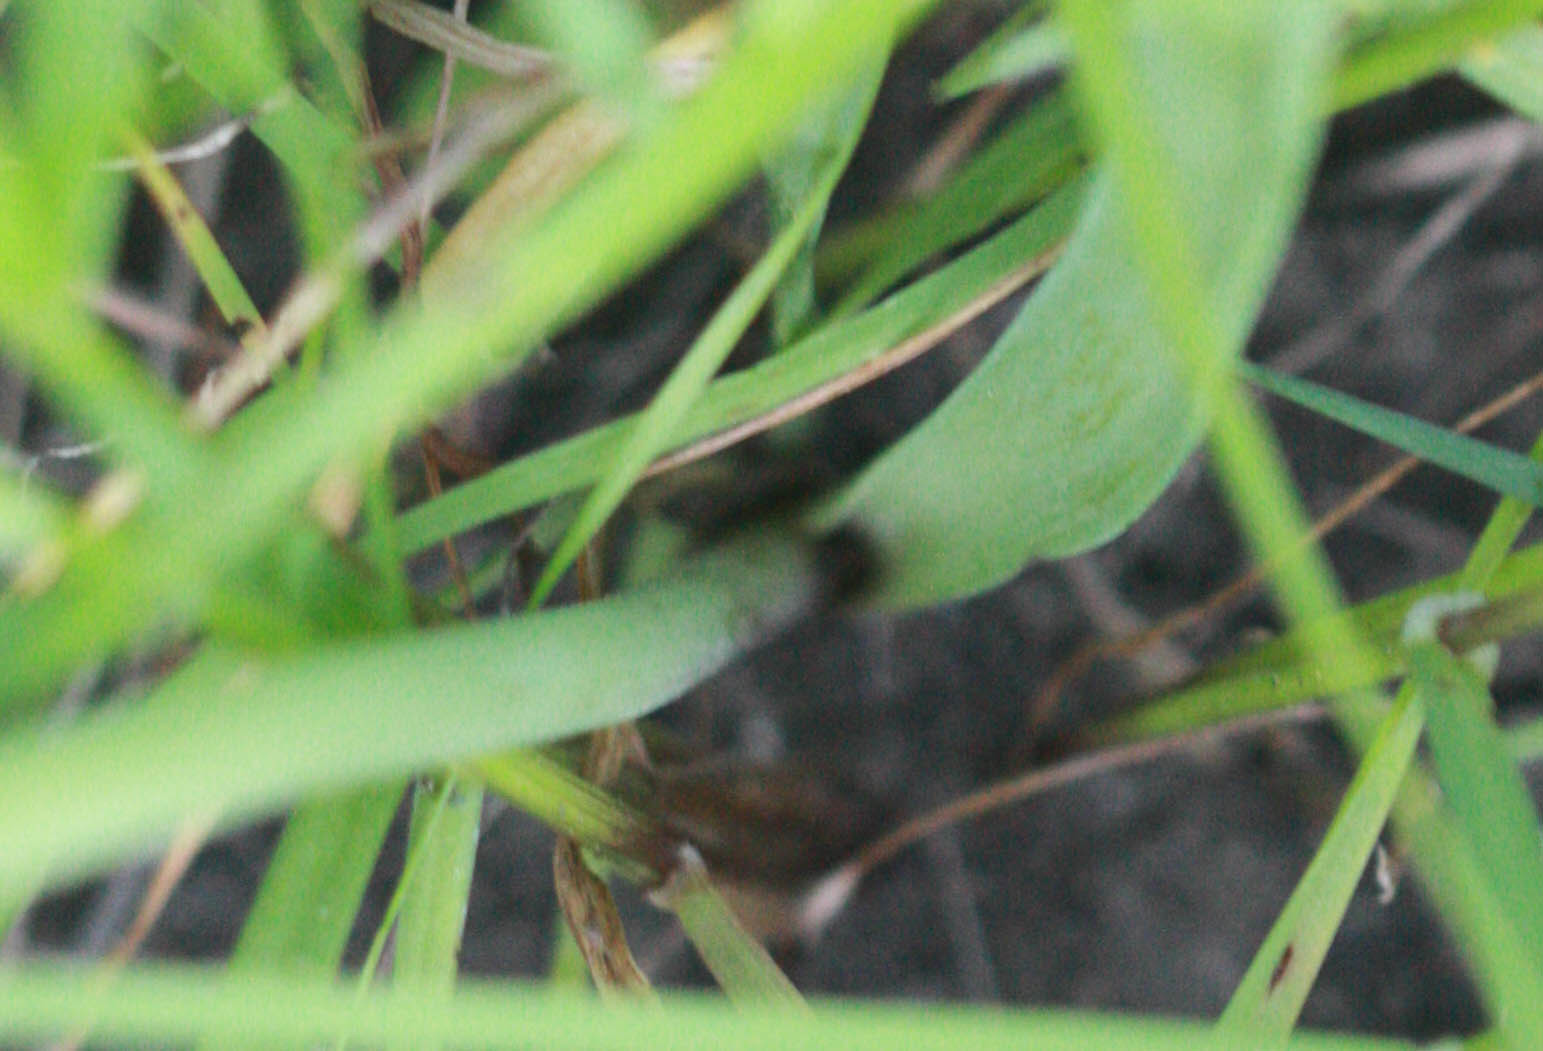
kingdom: Plantae
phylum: Tracheophyta
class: Liliopsida
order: Asparagales
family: Amaryllidaceae
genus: Allium
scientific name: Allium unifolium
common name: American garlic
